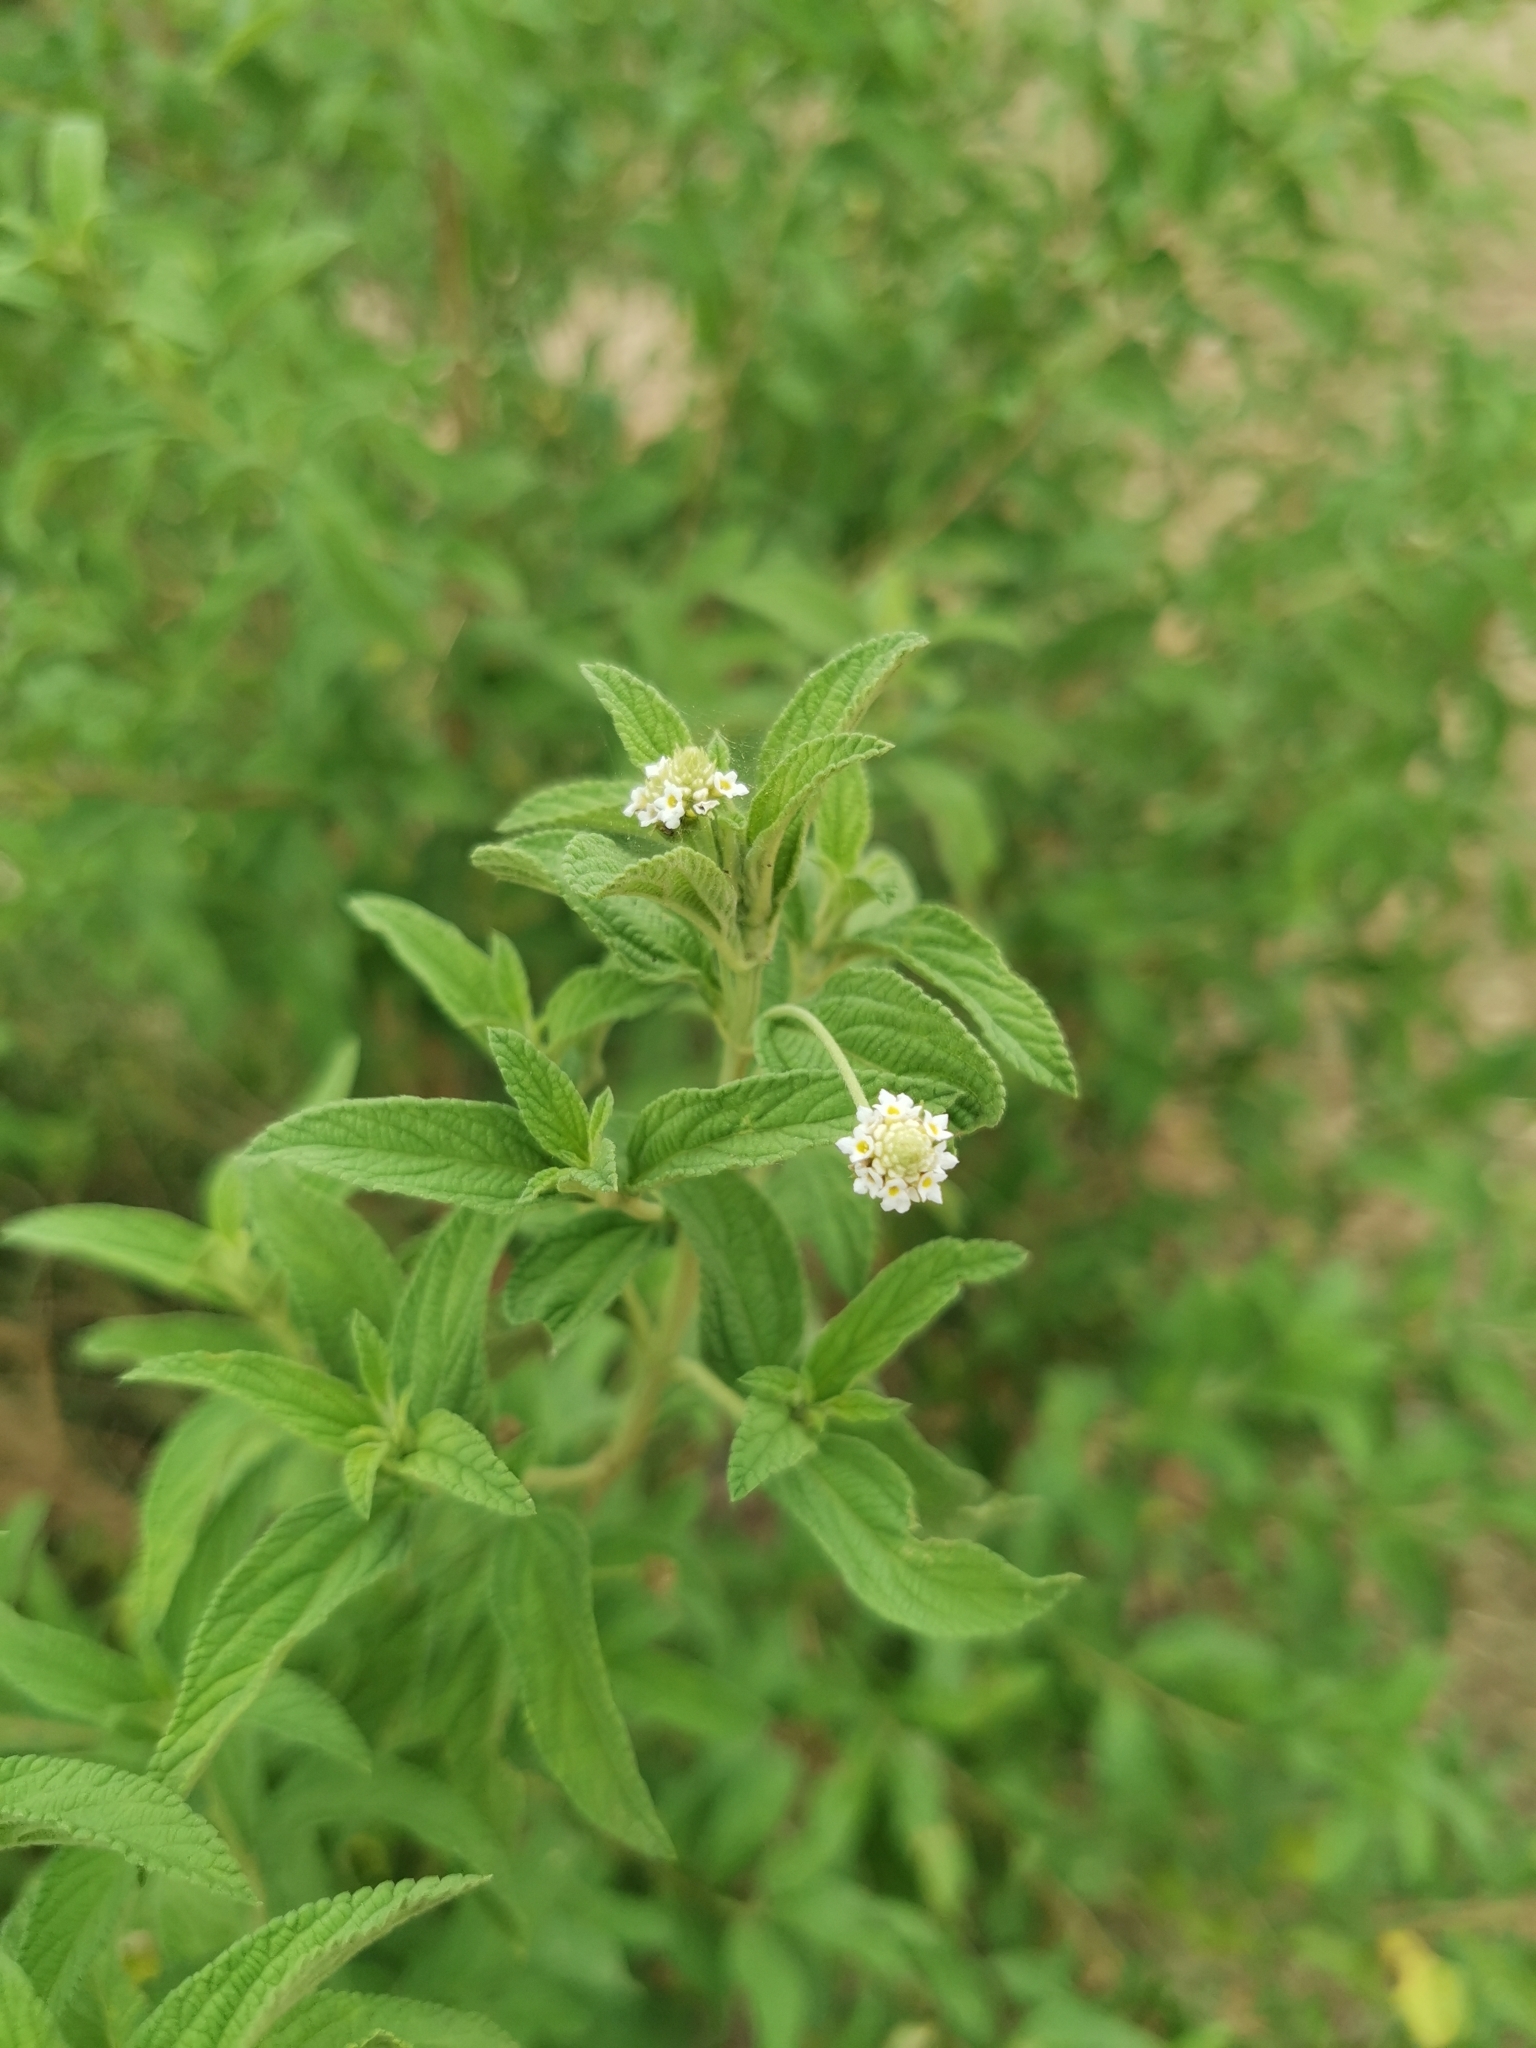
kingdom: Plantae
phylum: Tracheophyta
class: Magnoliopsida
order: Lamiales
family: Verbenaceae
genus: Lippia
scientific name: Lippia javanica
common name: Lemonbush
